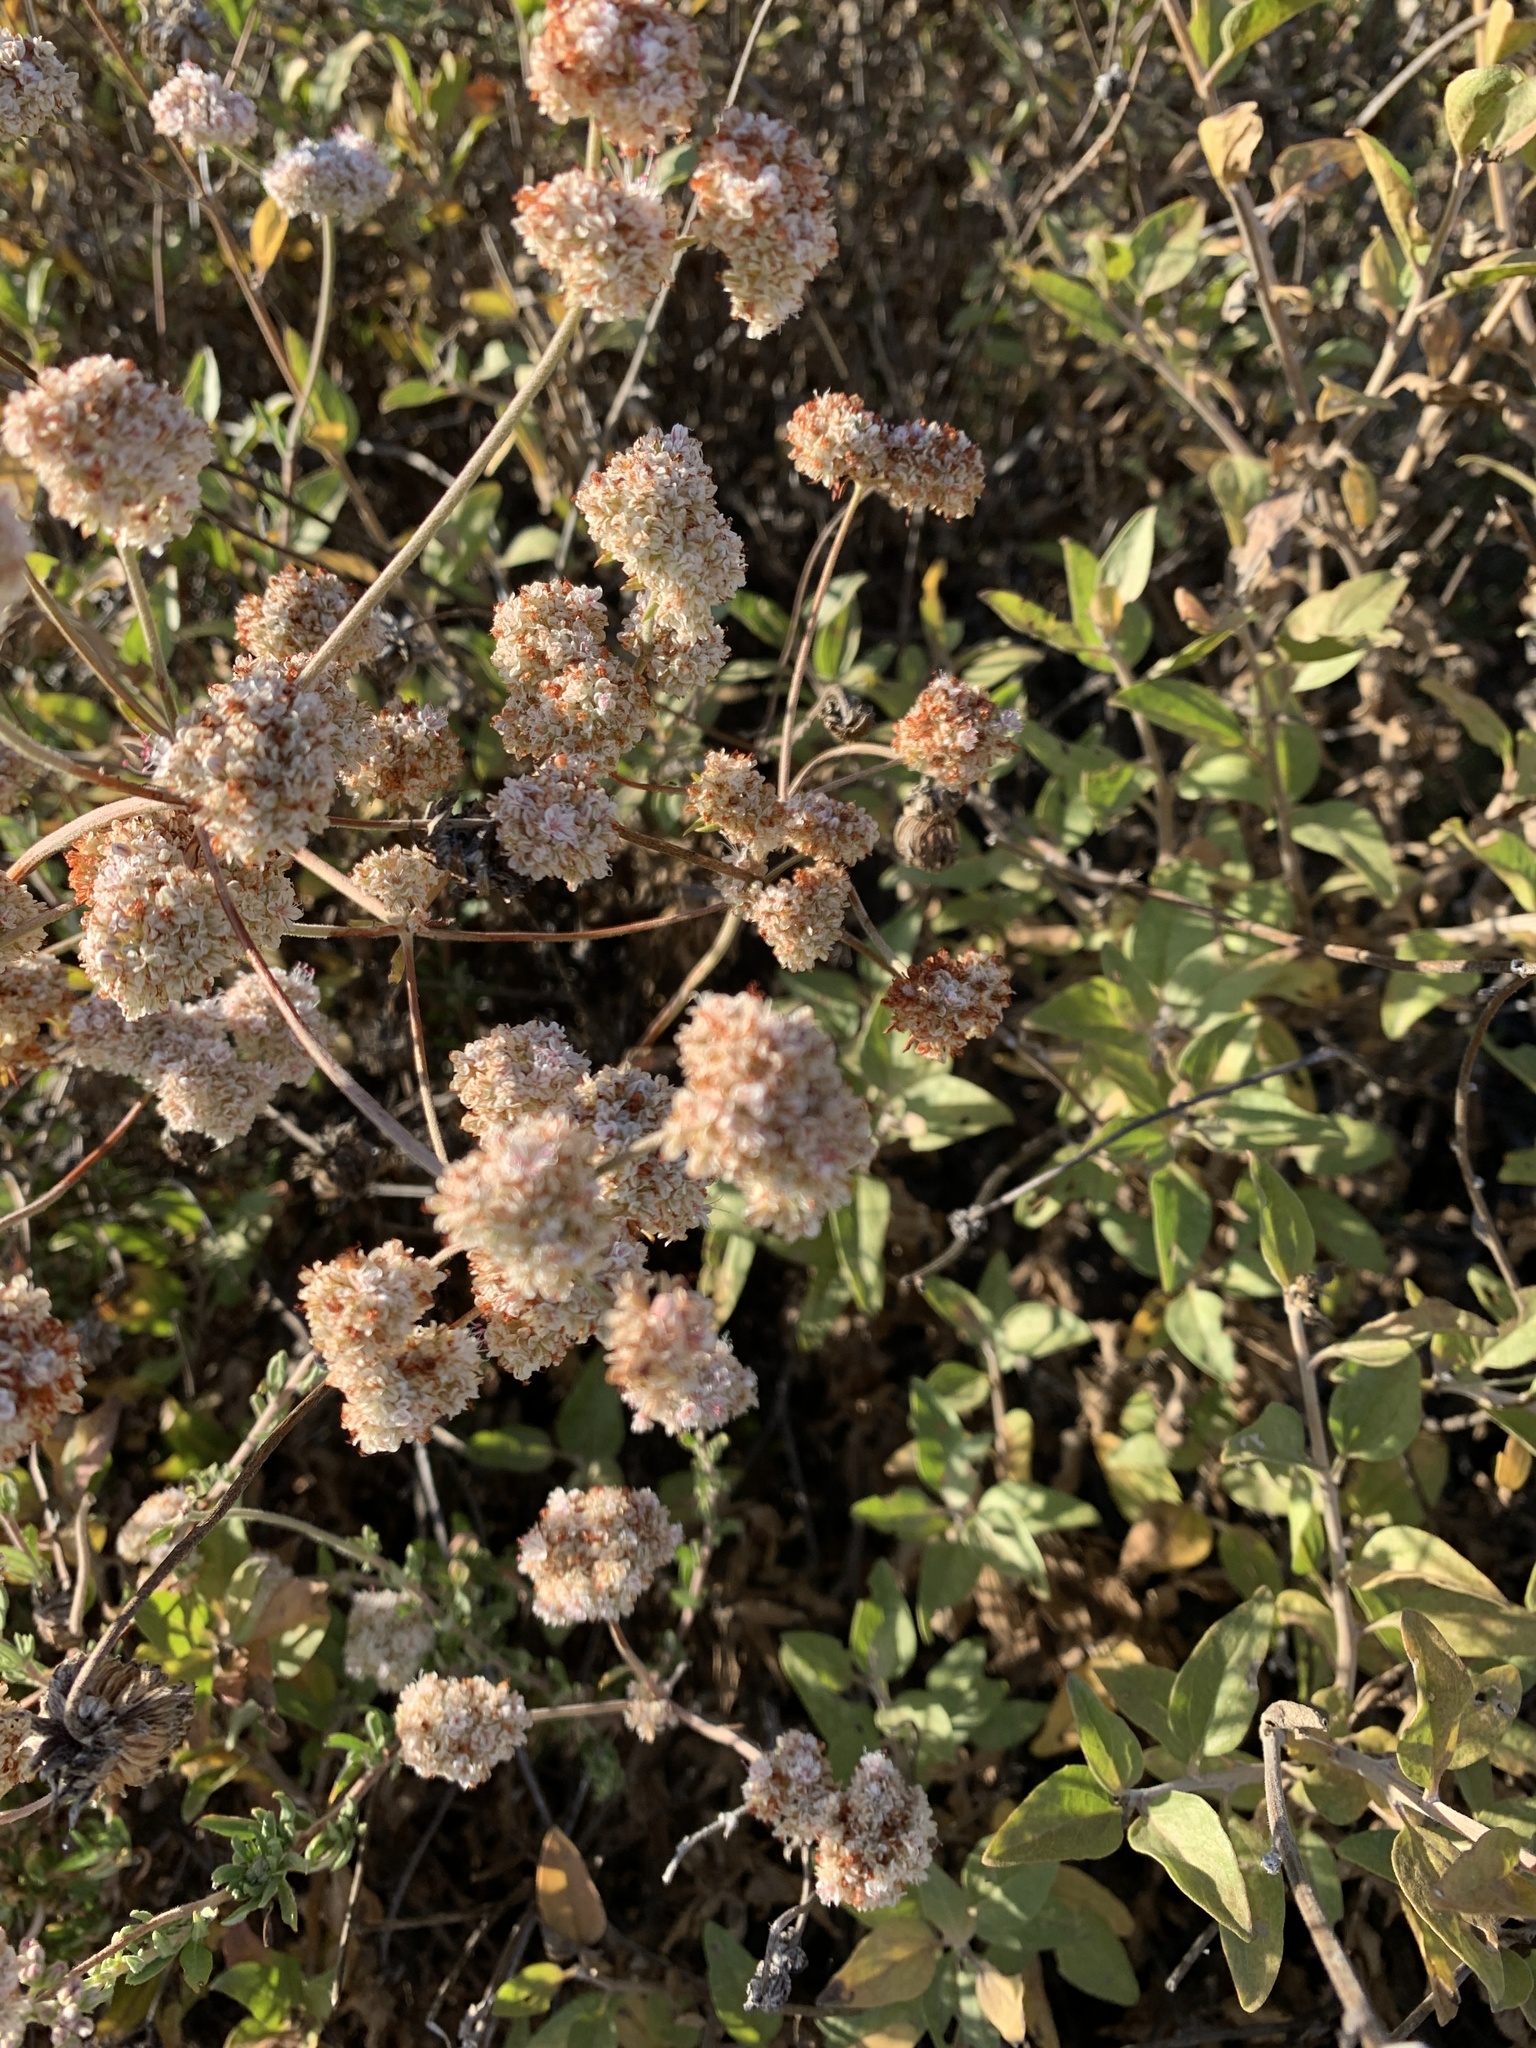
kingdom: Plantae
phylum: Tracheophyta
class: Magnoliopsida
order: Caryophyllales
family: Polygonaceae
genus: Eriogonum
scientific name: Eriogonum fasciculatum
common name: California wild buckwheat
